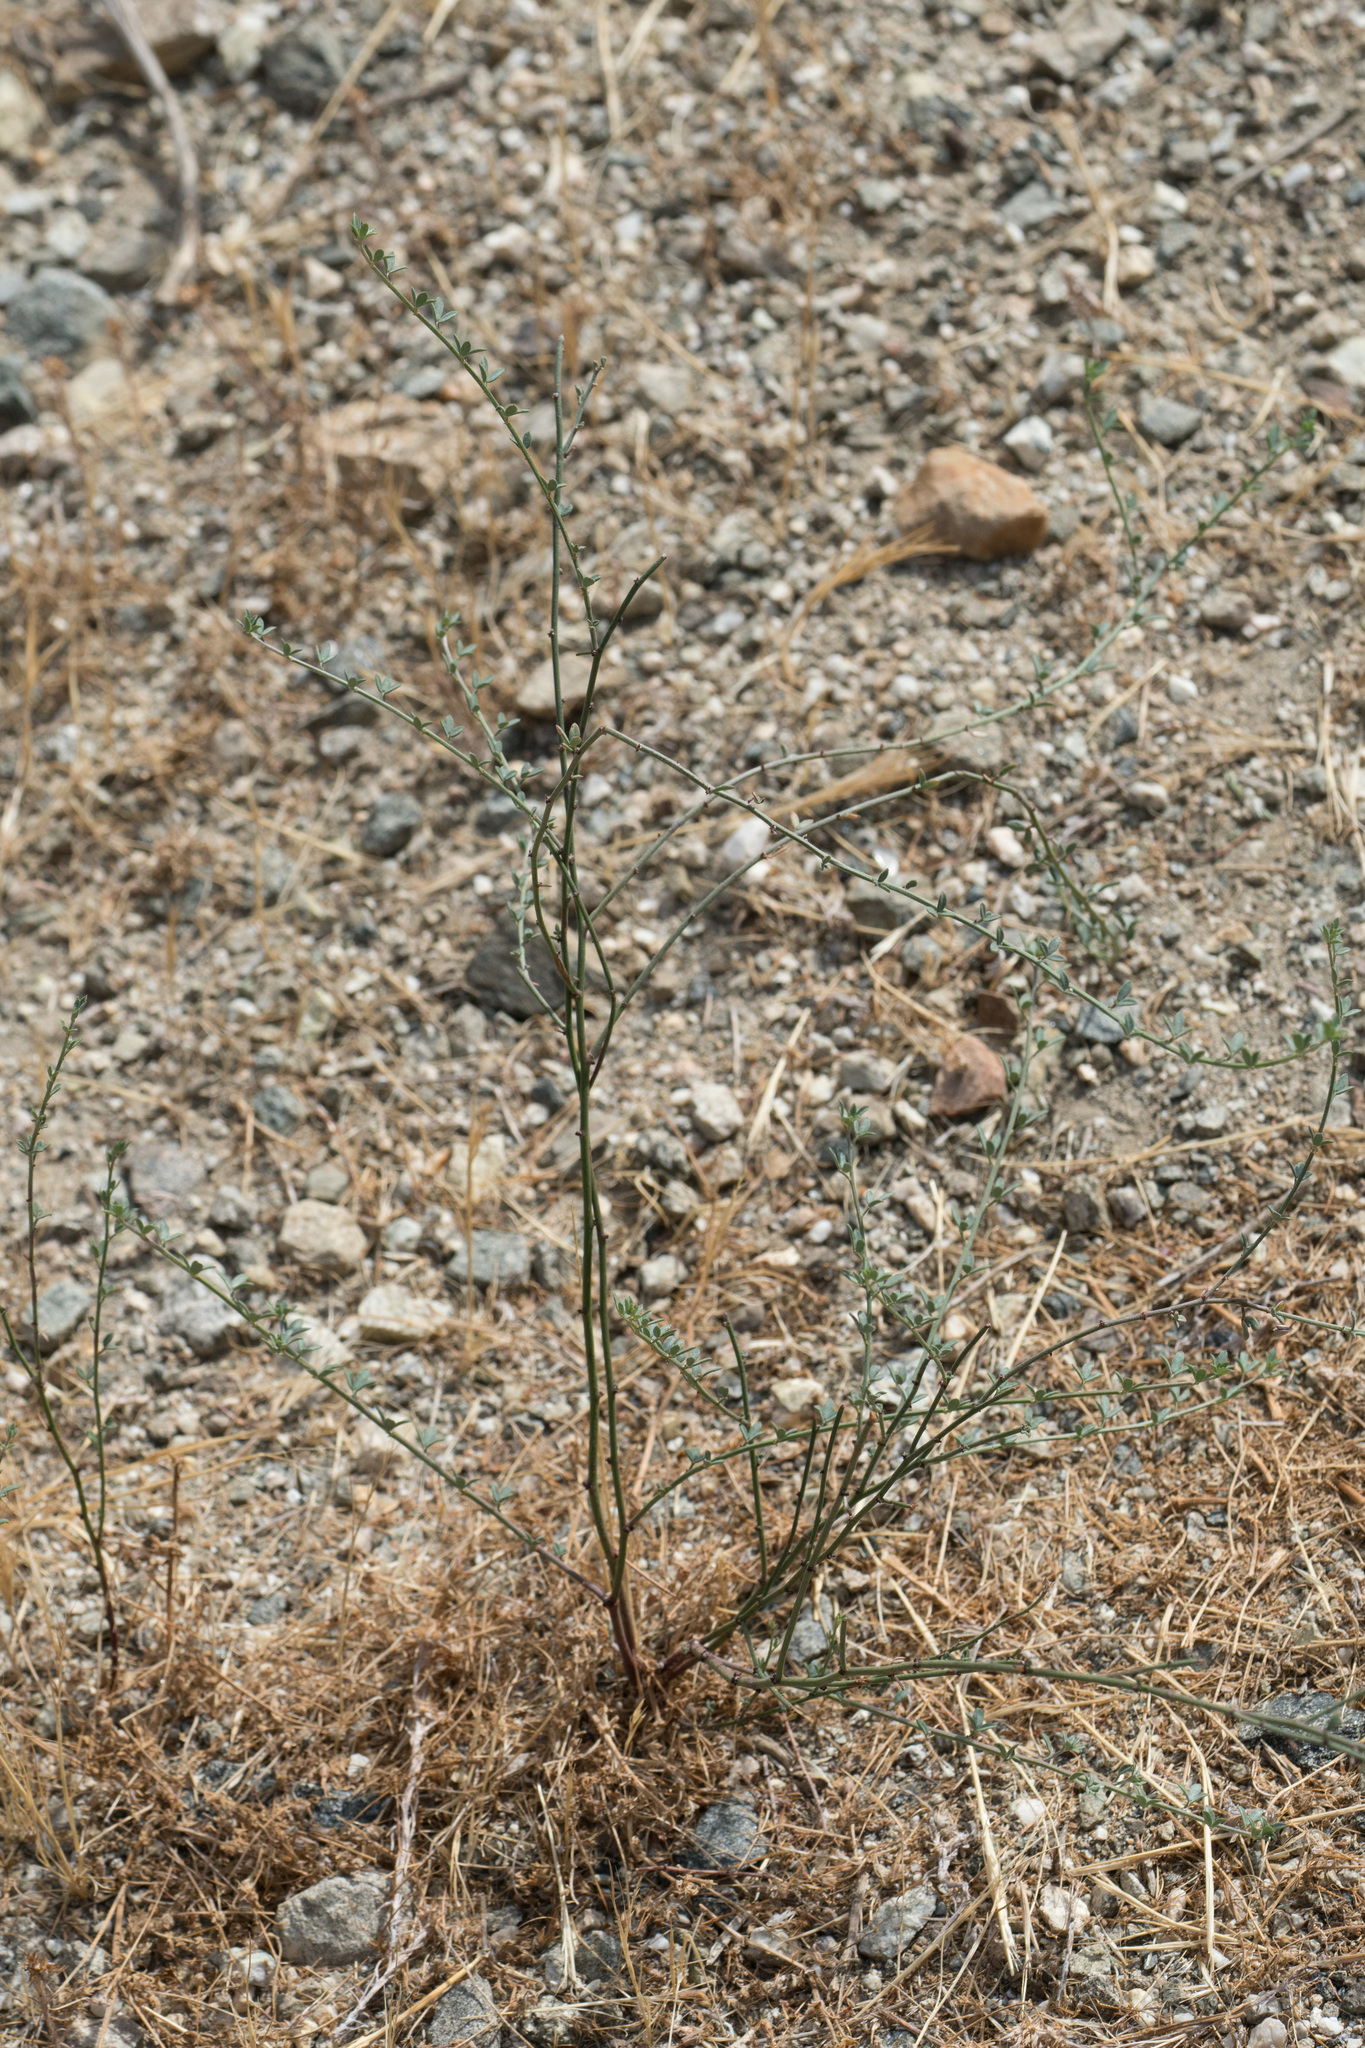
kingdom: Plantae
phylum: Tracheophyta
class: Magnoliopsida
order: Fabales
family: Fabaceae
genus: Acmispon
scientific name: Acmispon glaber
